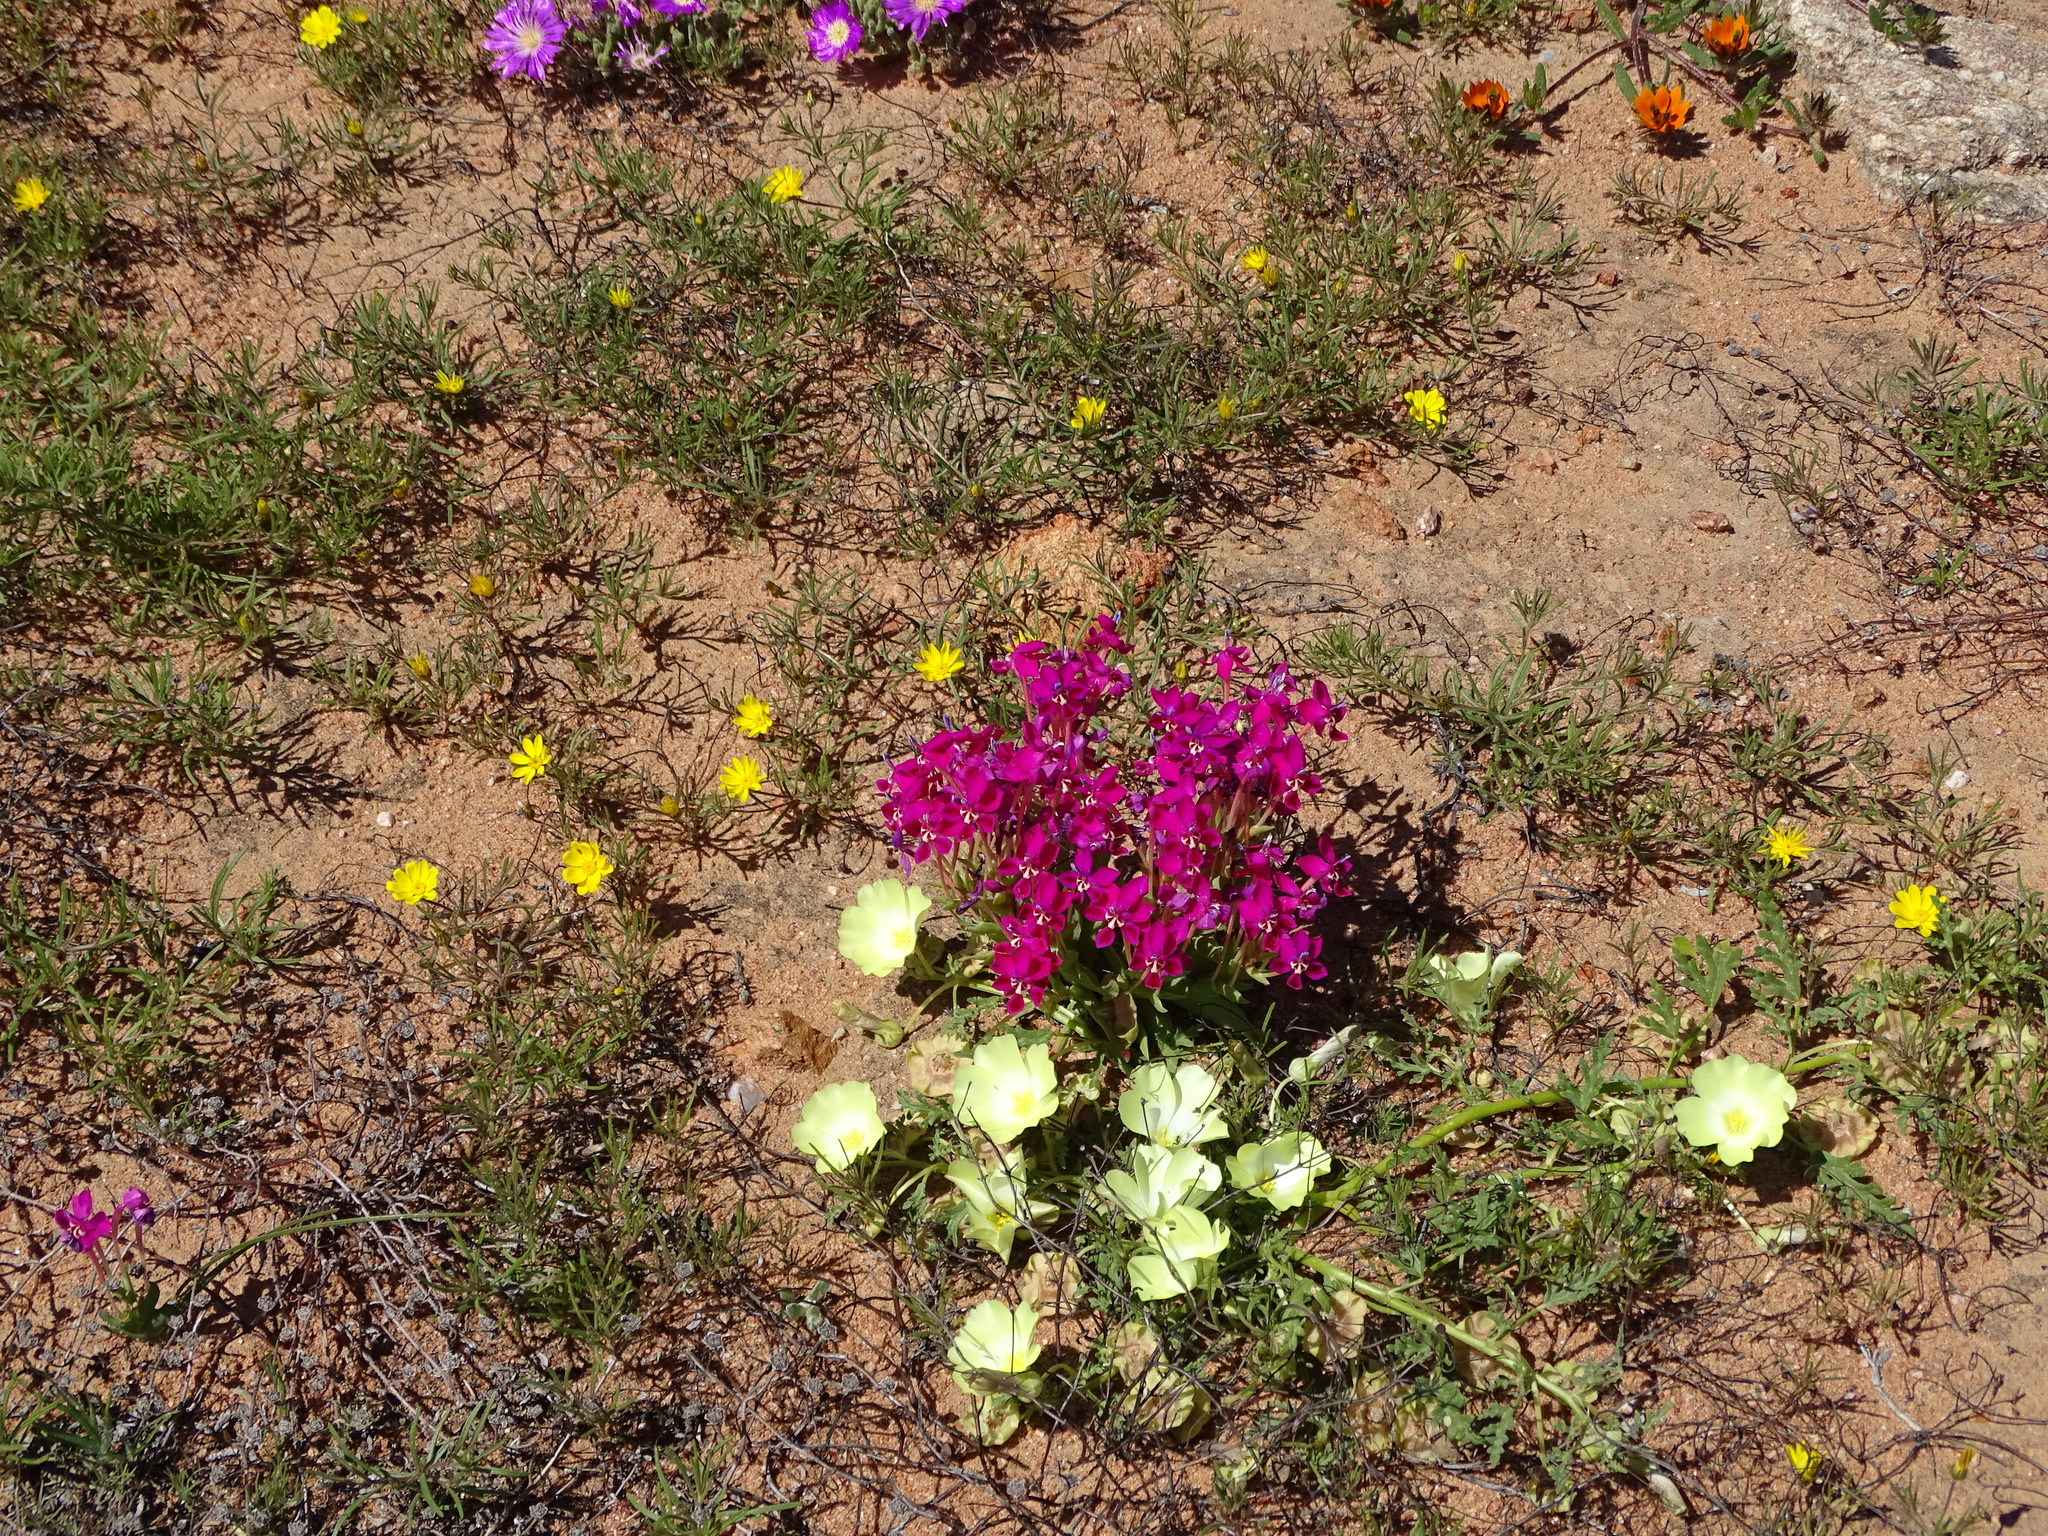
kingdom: Plantae
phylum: Tracheophyta
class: Liliopsida
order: Asparagales
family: Iridaceae
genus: Lapeirousia
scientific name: Lapeirousia silenoides
